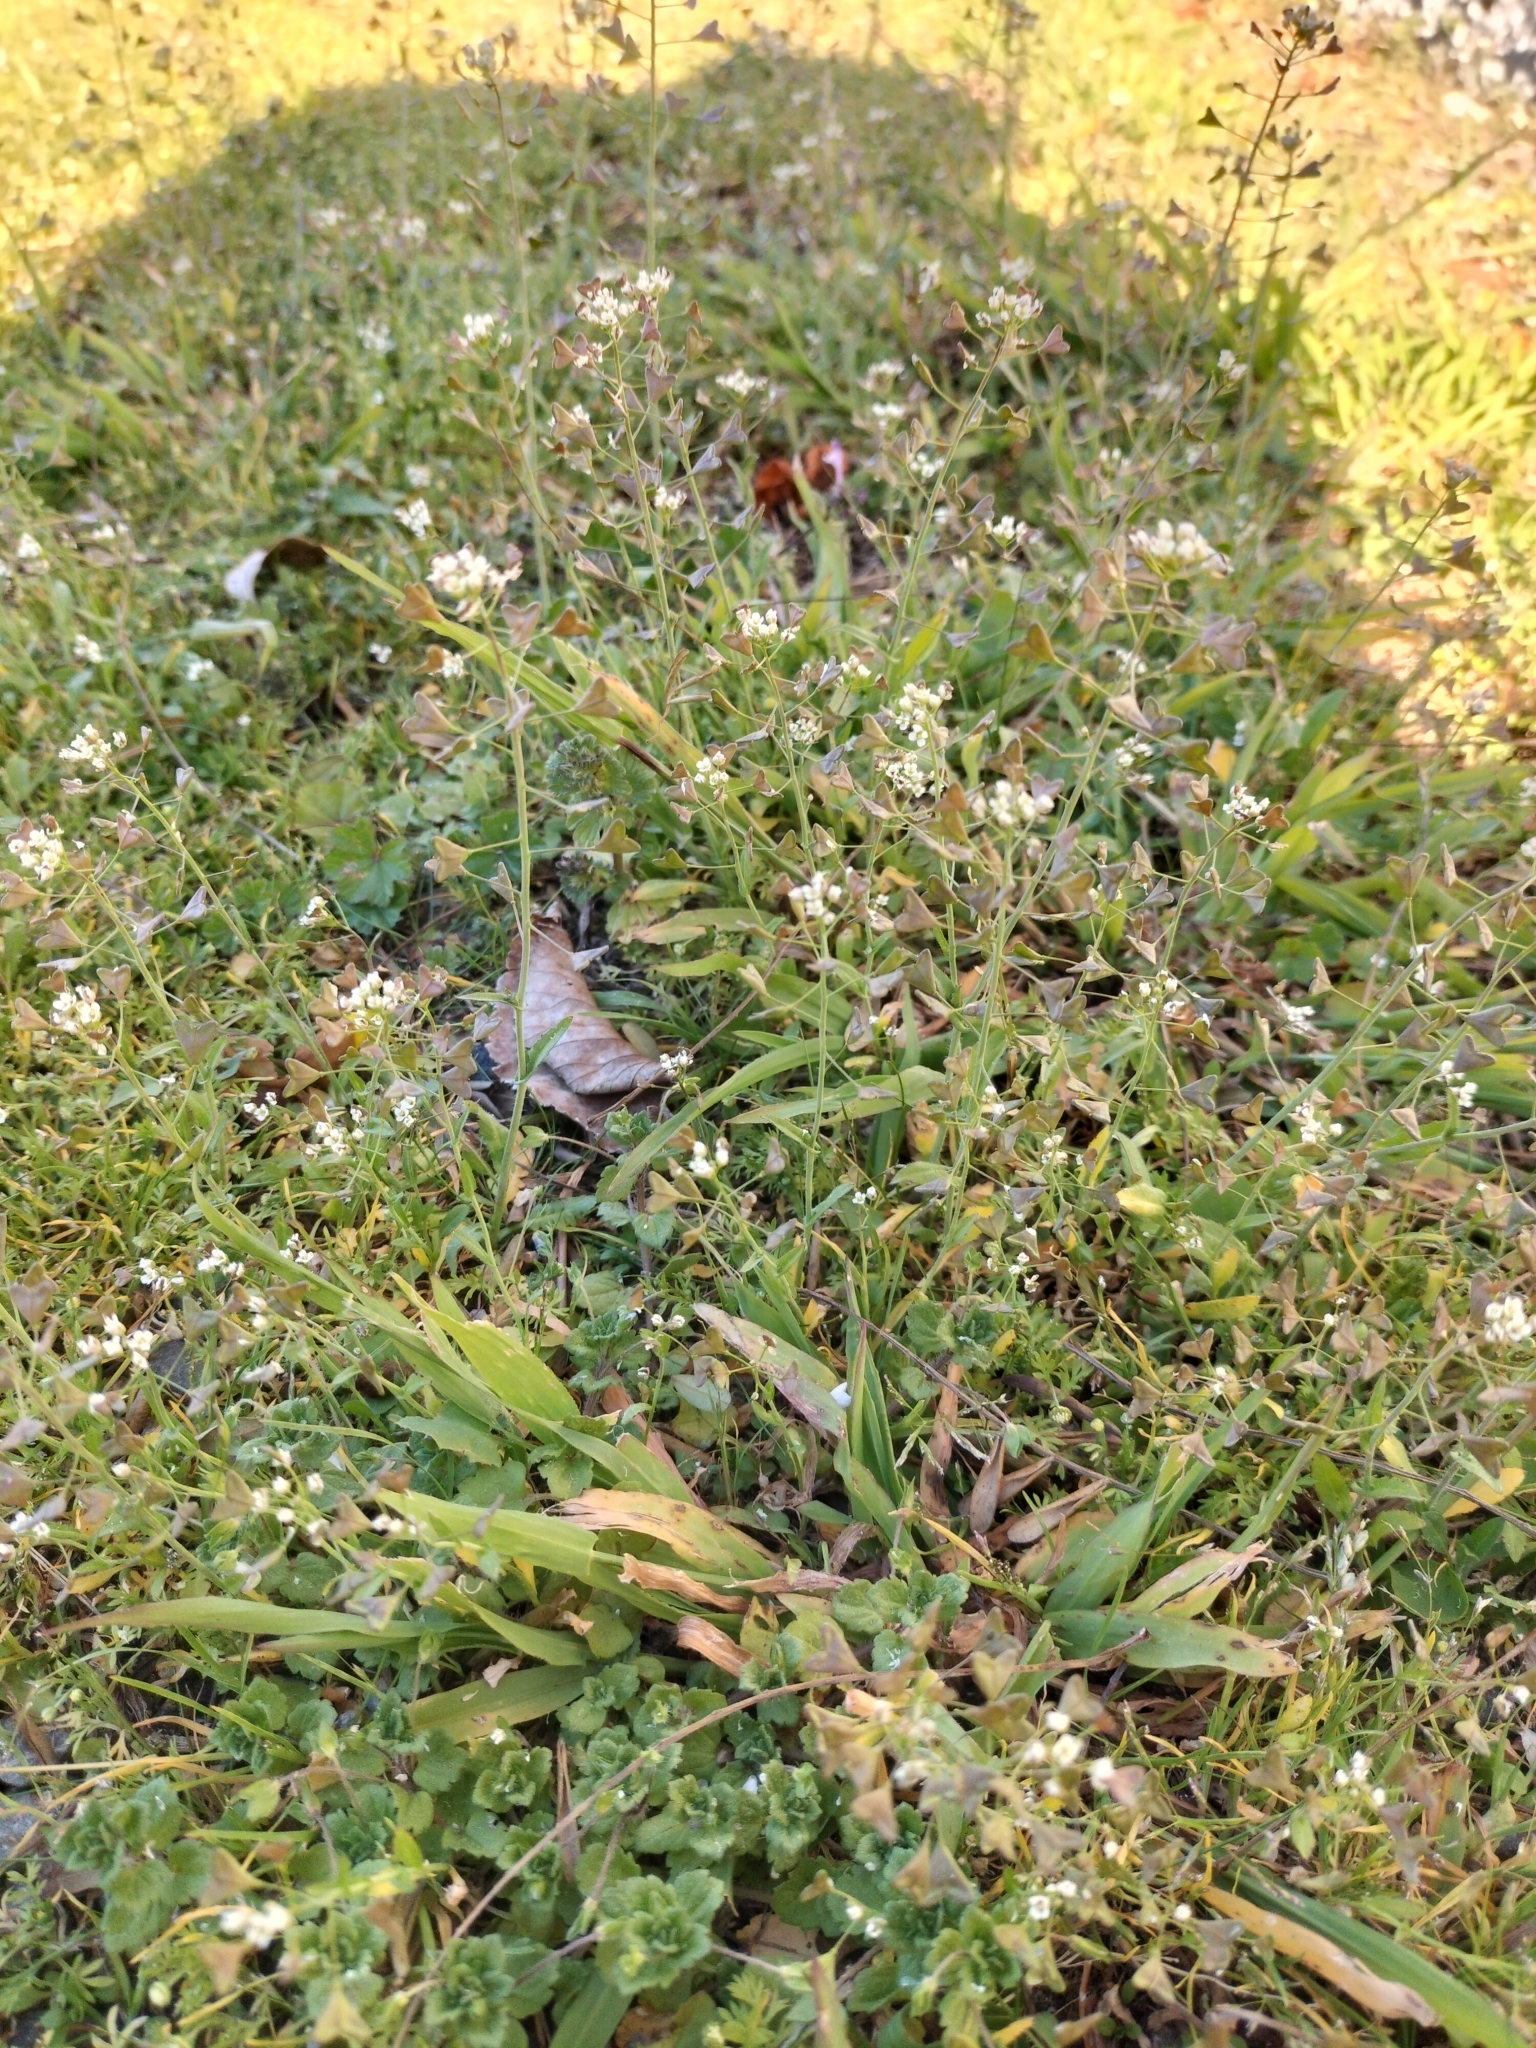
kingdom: Plantae
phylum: Tracheophyta
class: Magnoliopsida
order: Brassicales
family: Brassicaceae
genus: Capsella
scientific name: Capsella bursa-pastoris
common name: Shepherd's purse
